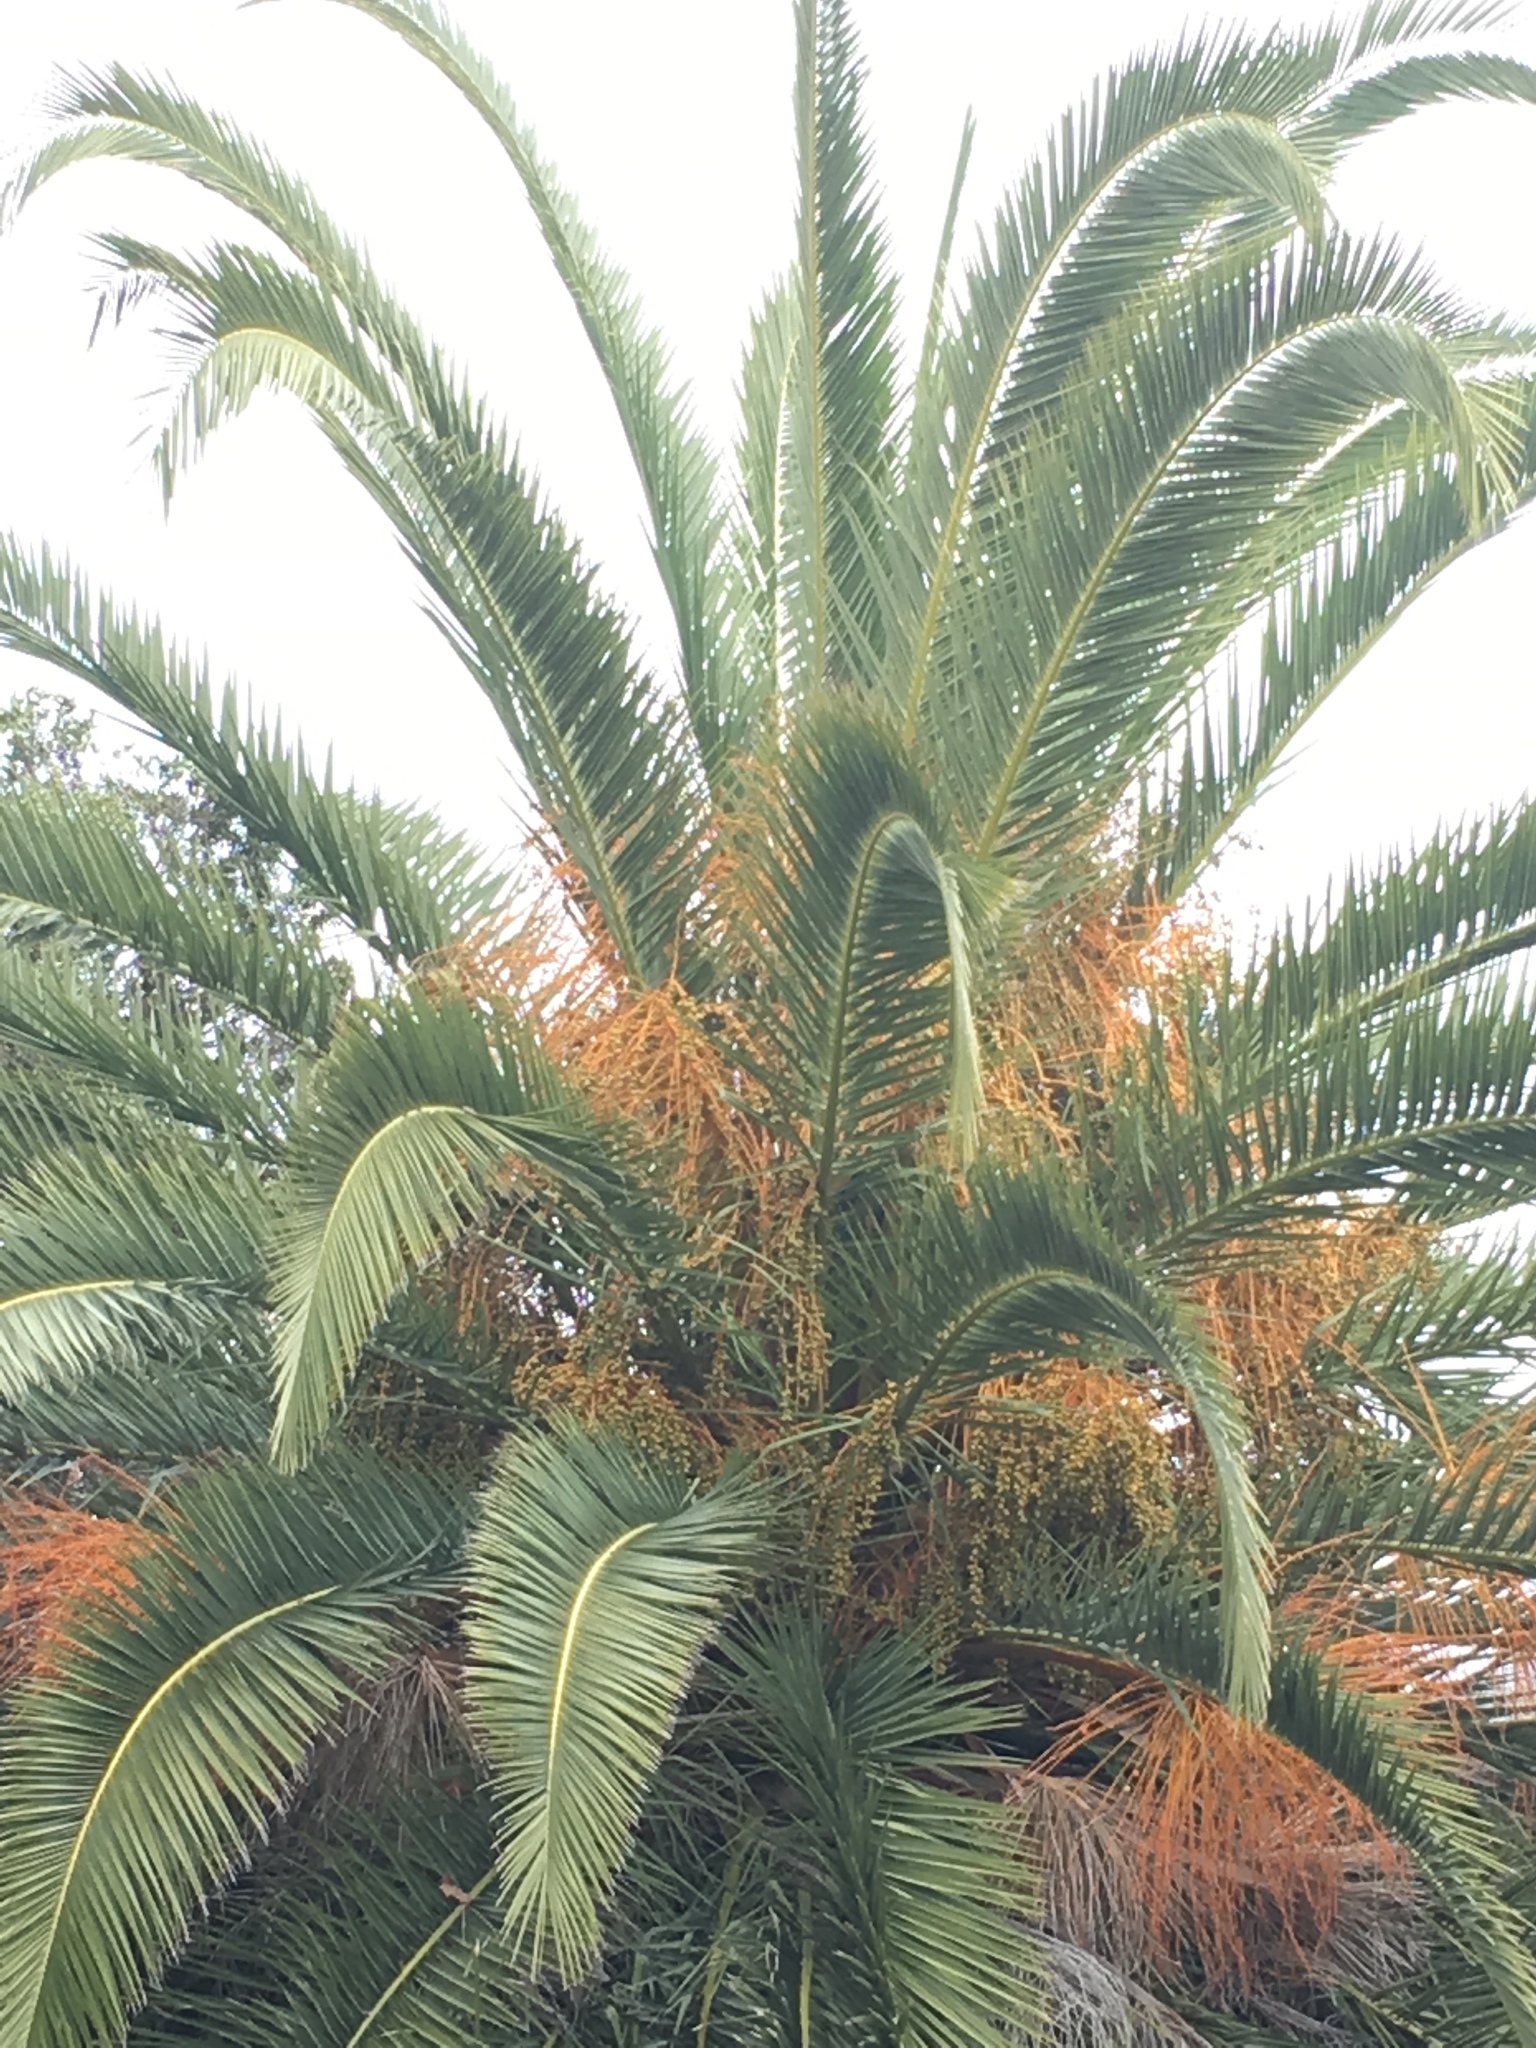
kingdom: Plantae
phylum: Tracheophyta
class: Liliopsida
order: Arecales
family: Arecaceae
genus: Phoenix
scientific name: Phoenix canariensis
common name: Canary island date palm
